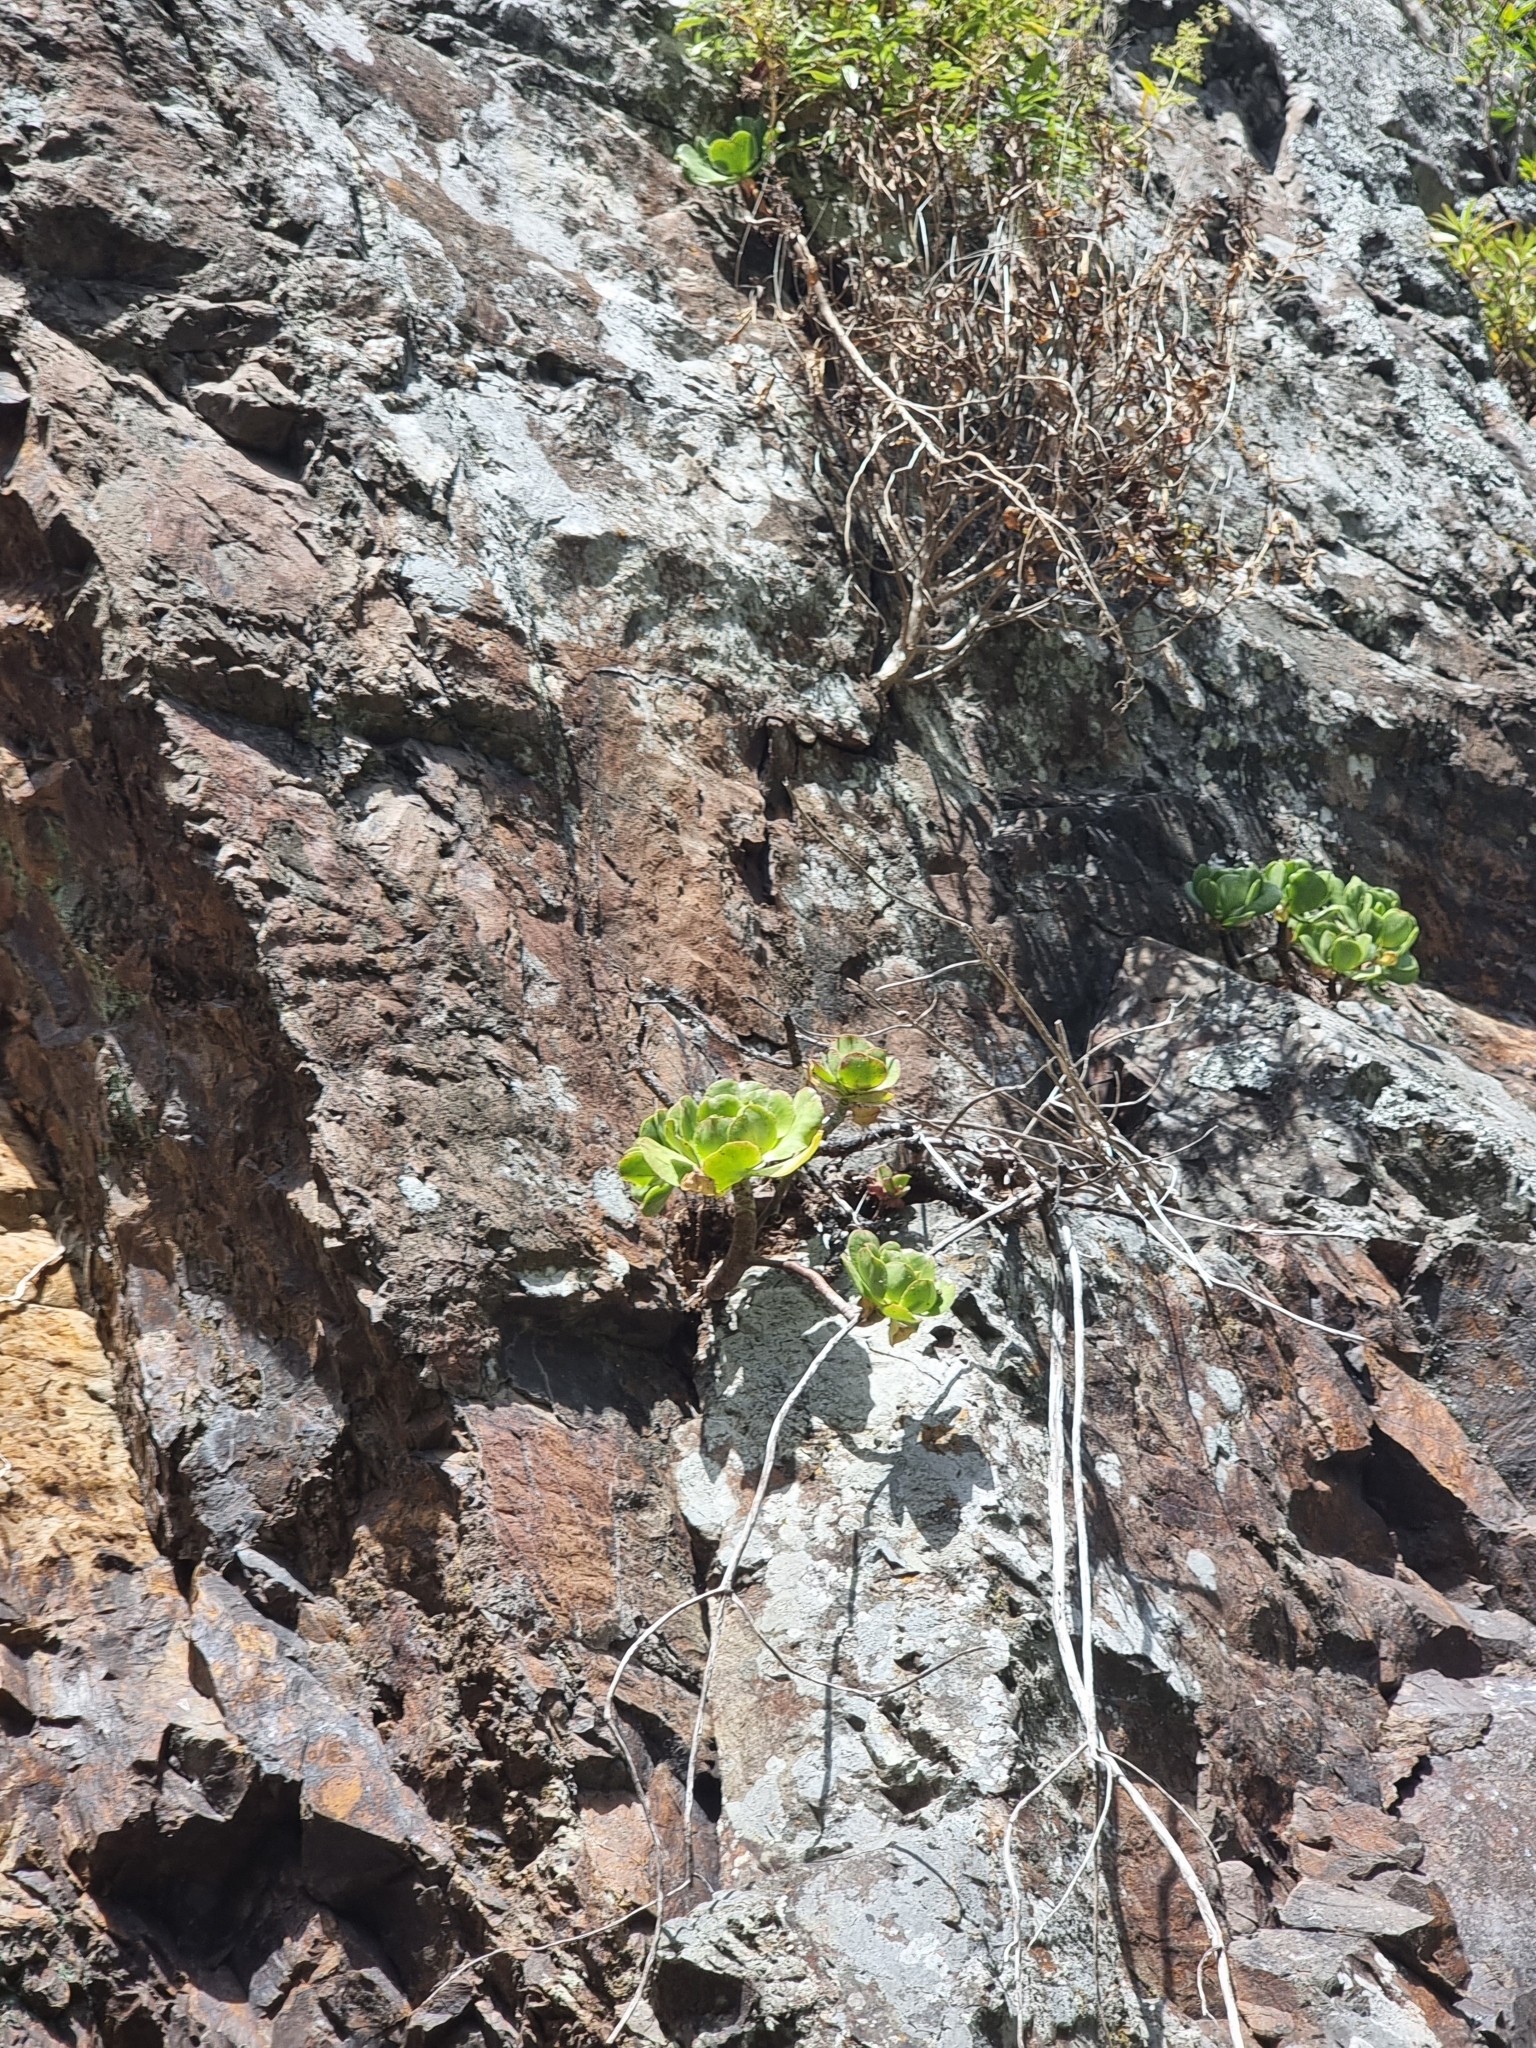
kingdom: Plantae
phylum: Tracheophyta
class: Magnoliopsida
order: Saxifragales
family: Crassulaceae
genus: Aeonium
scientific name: Aeonium glutinosum
